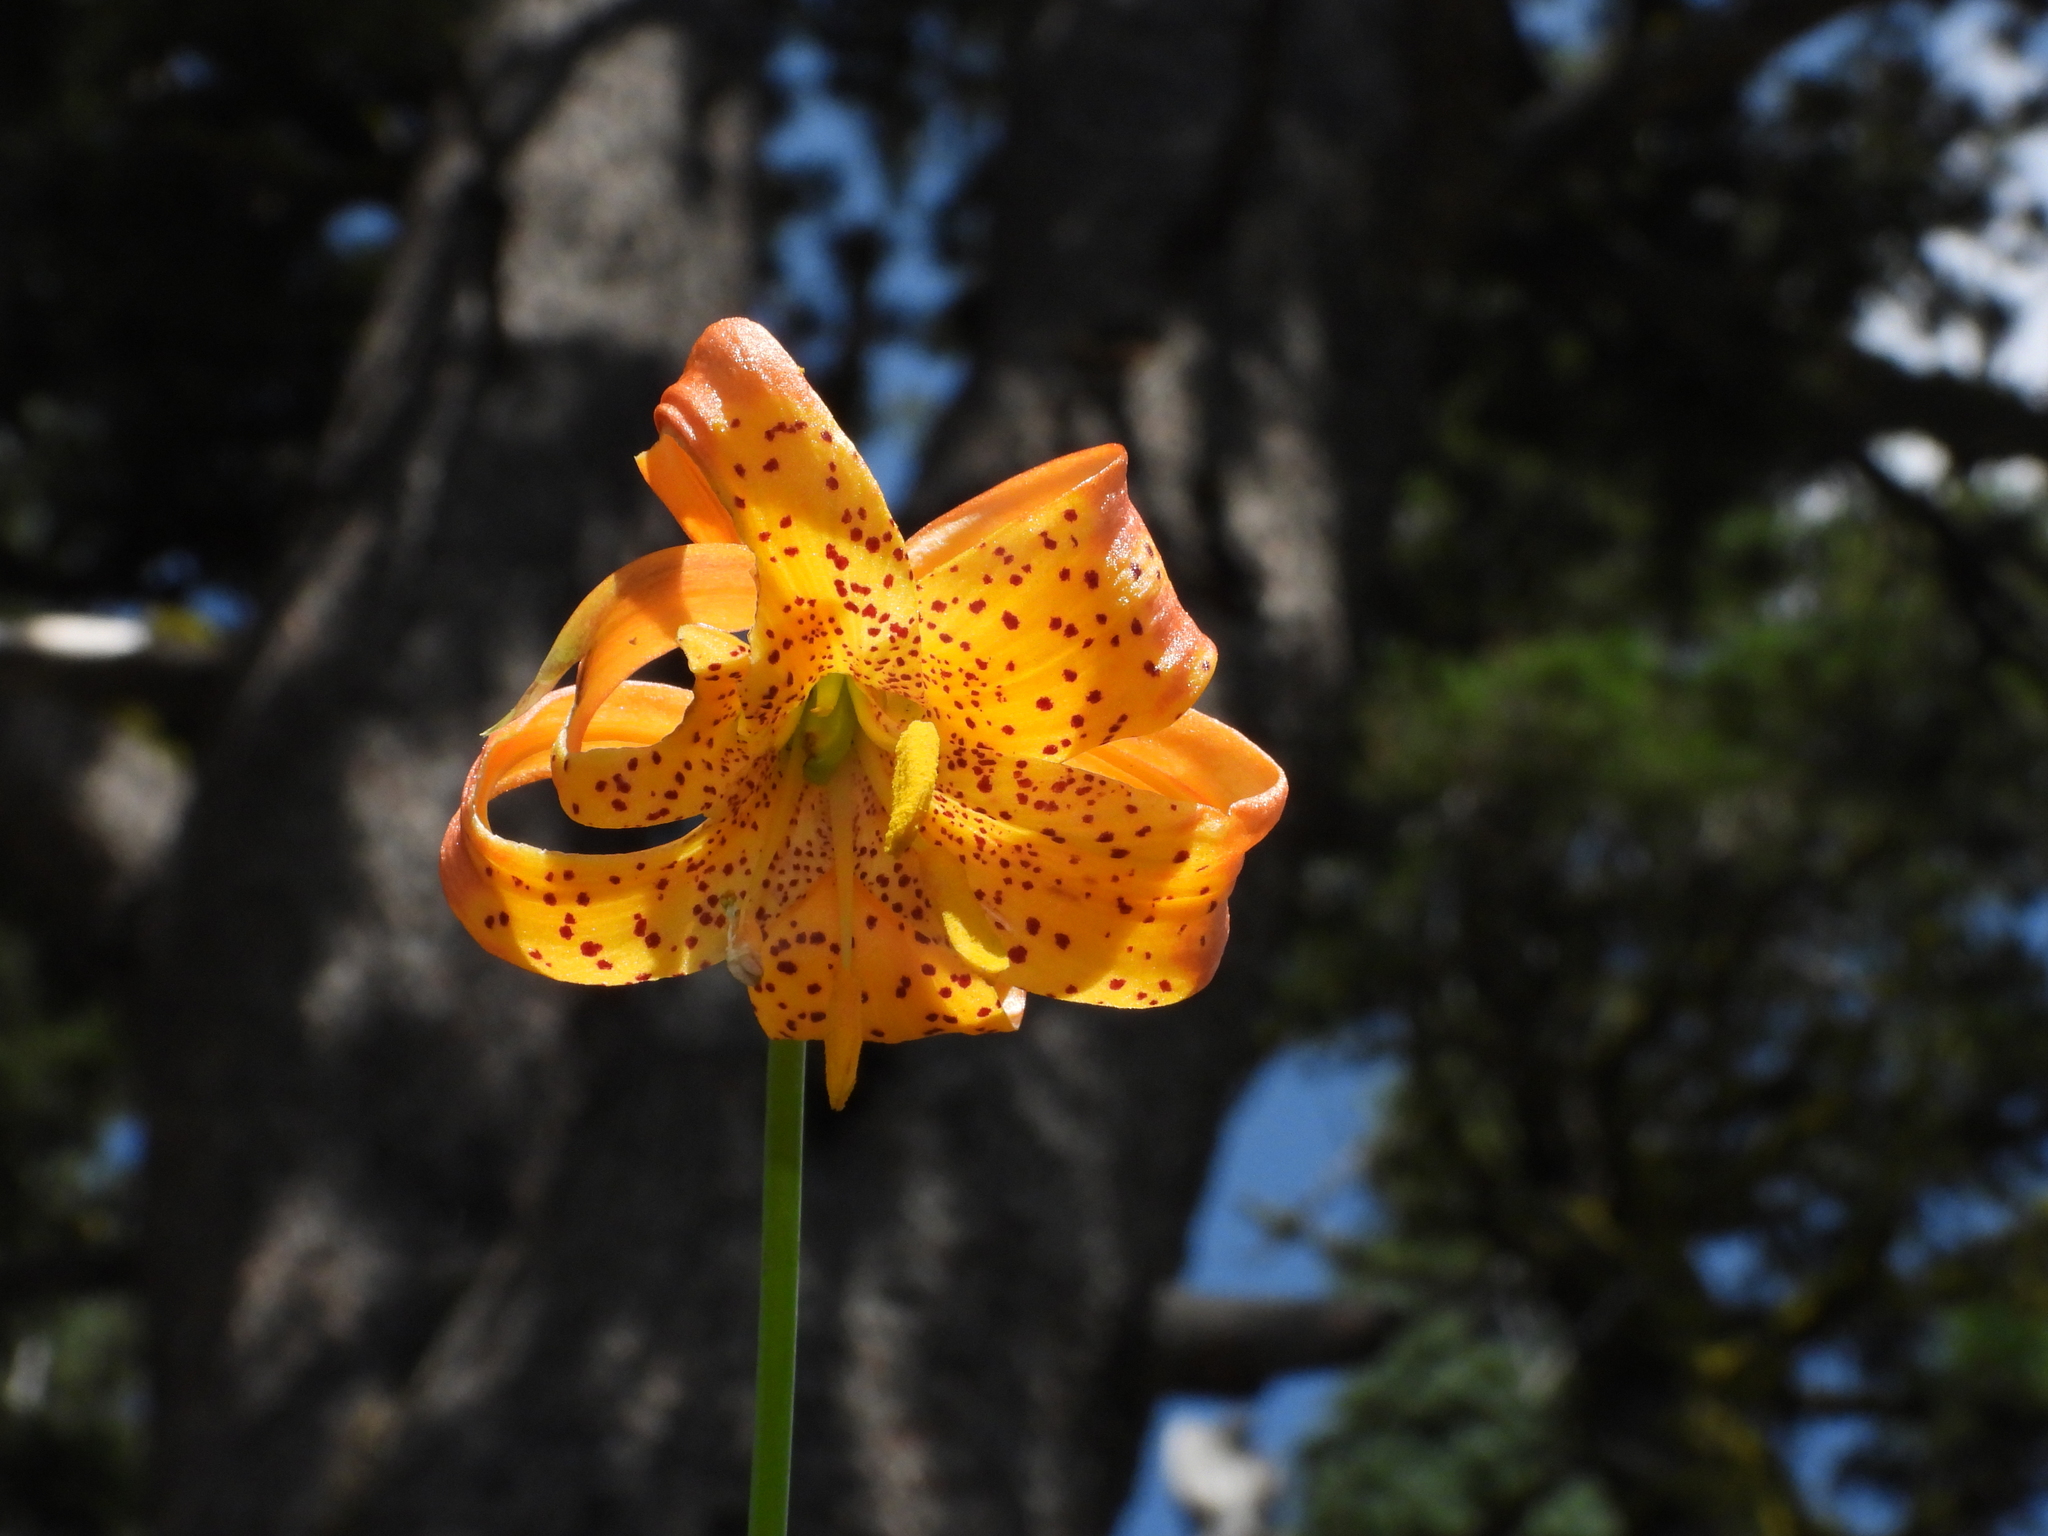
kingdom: Plantae
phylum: Tracheophyta
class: Liliopsida
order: Liliales
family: Liliaceae
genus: Lilium
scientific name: Lilium pardalinum
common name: Panther lily
